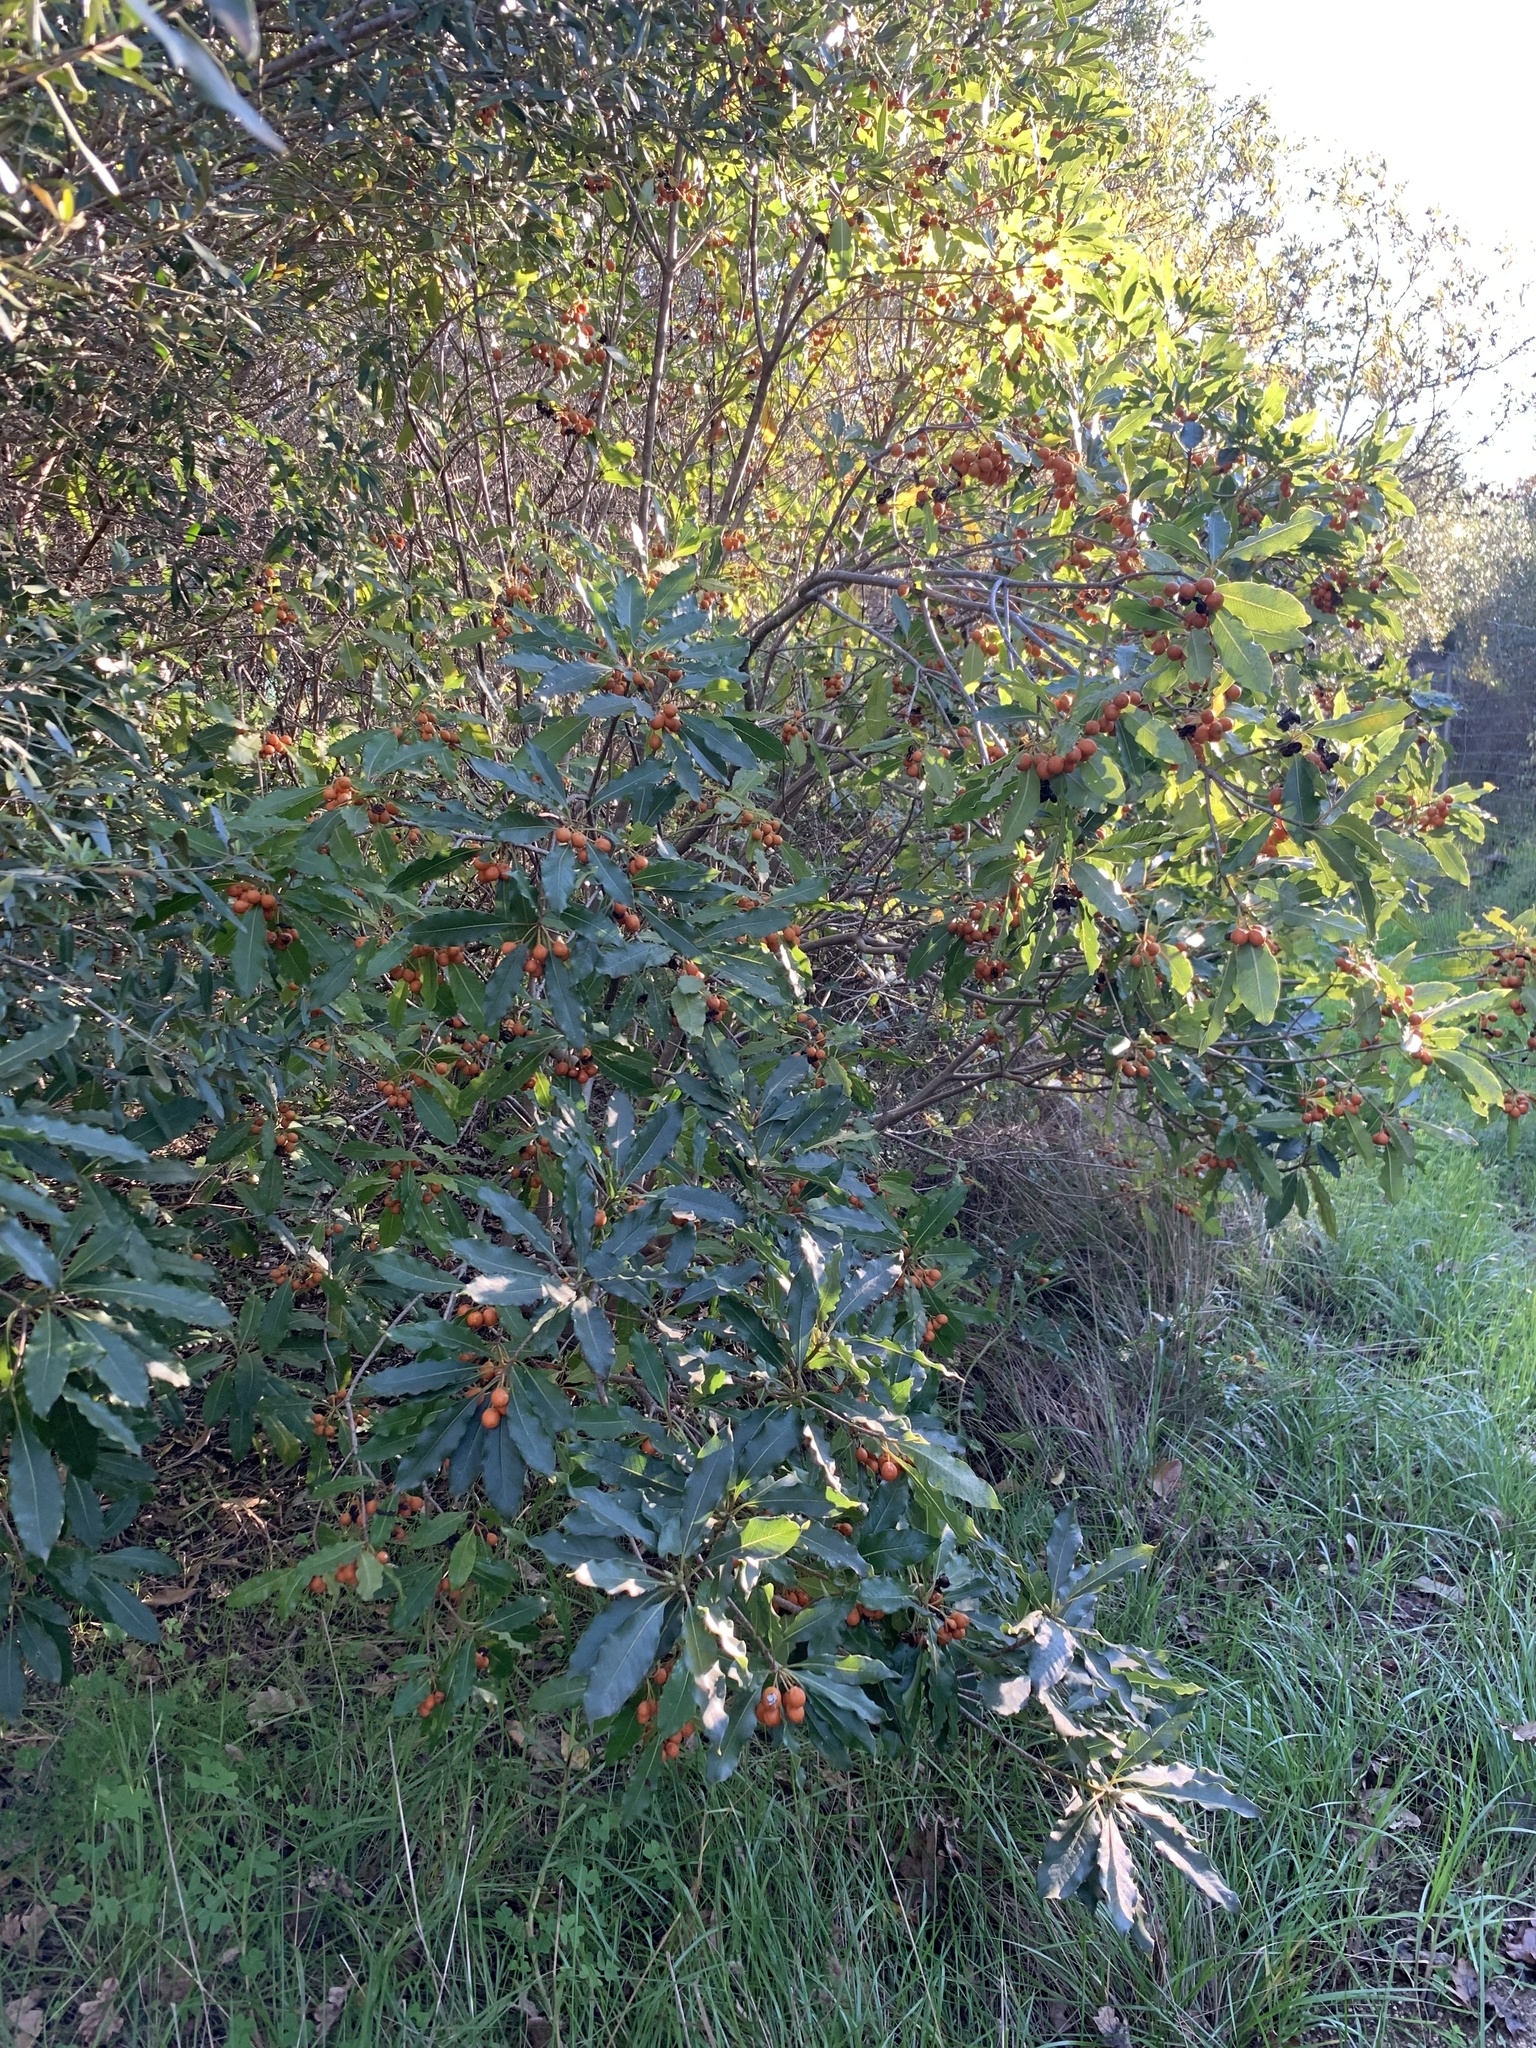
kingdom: Plantae
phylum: Tracheophyta
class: Magnoliopsida
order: Apiales
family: Pittosporaceae
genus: Pittosporum
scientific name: Pittosporum undulatum
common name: Australian cheesewood
